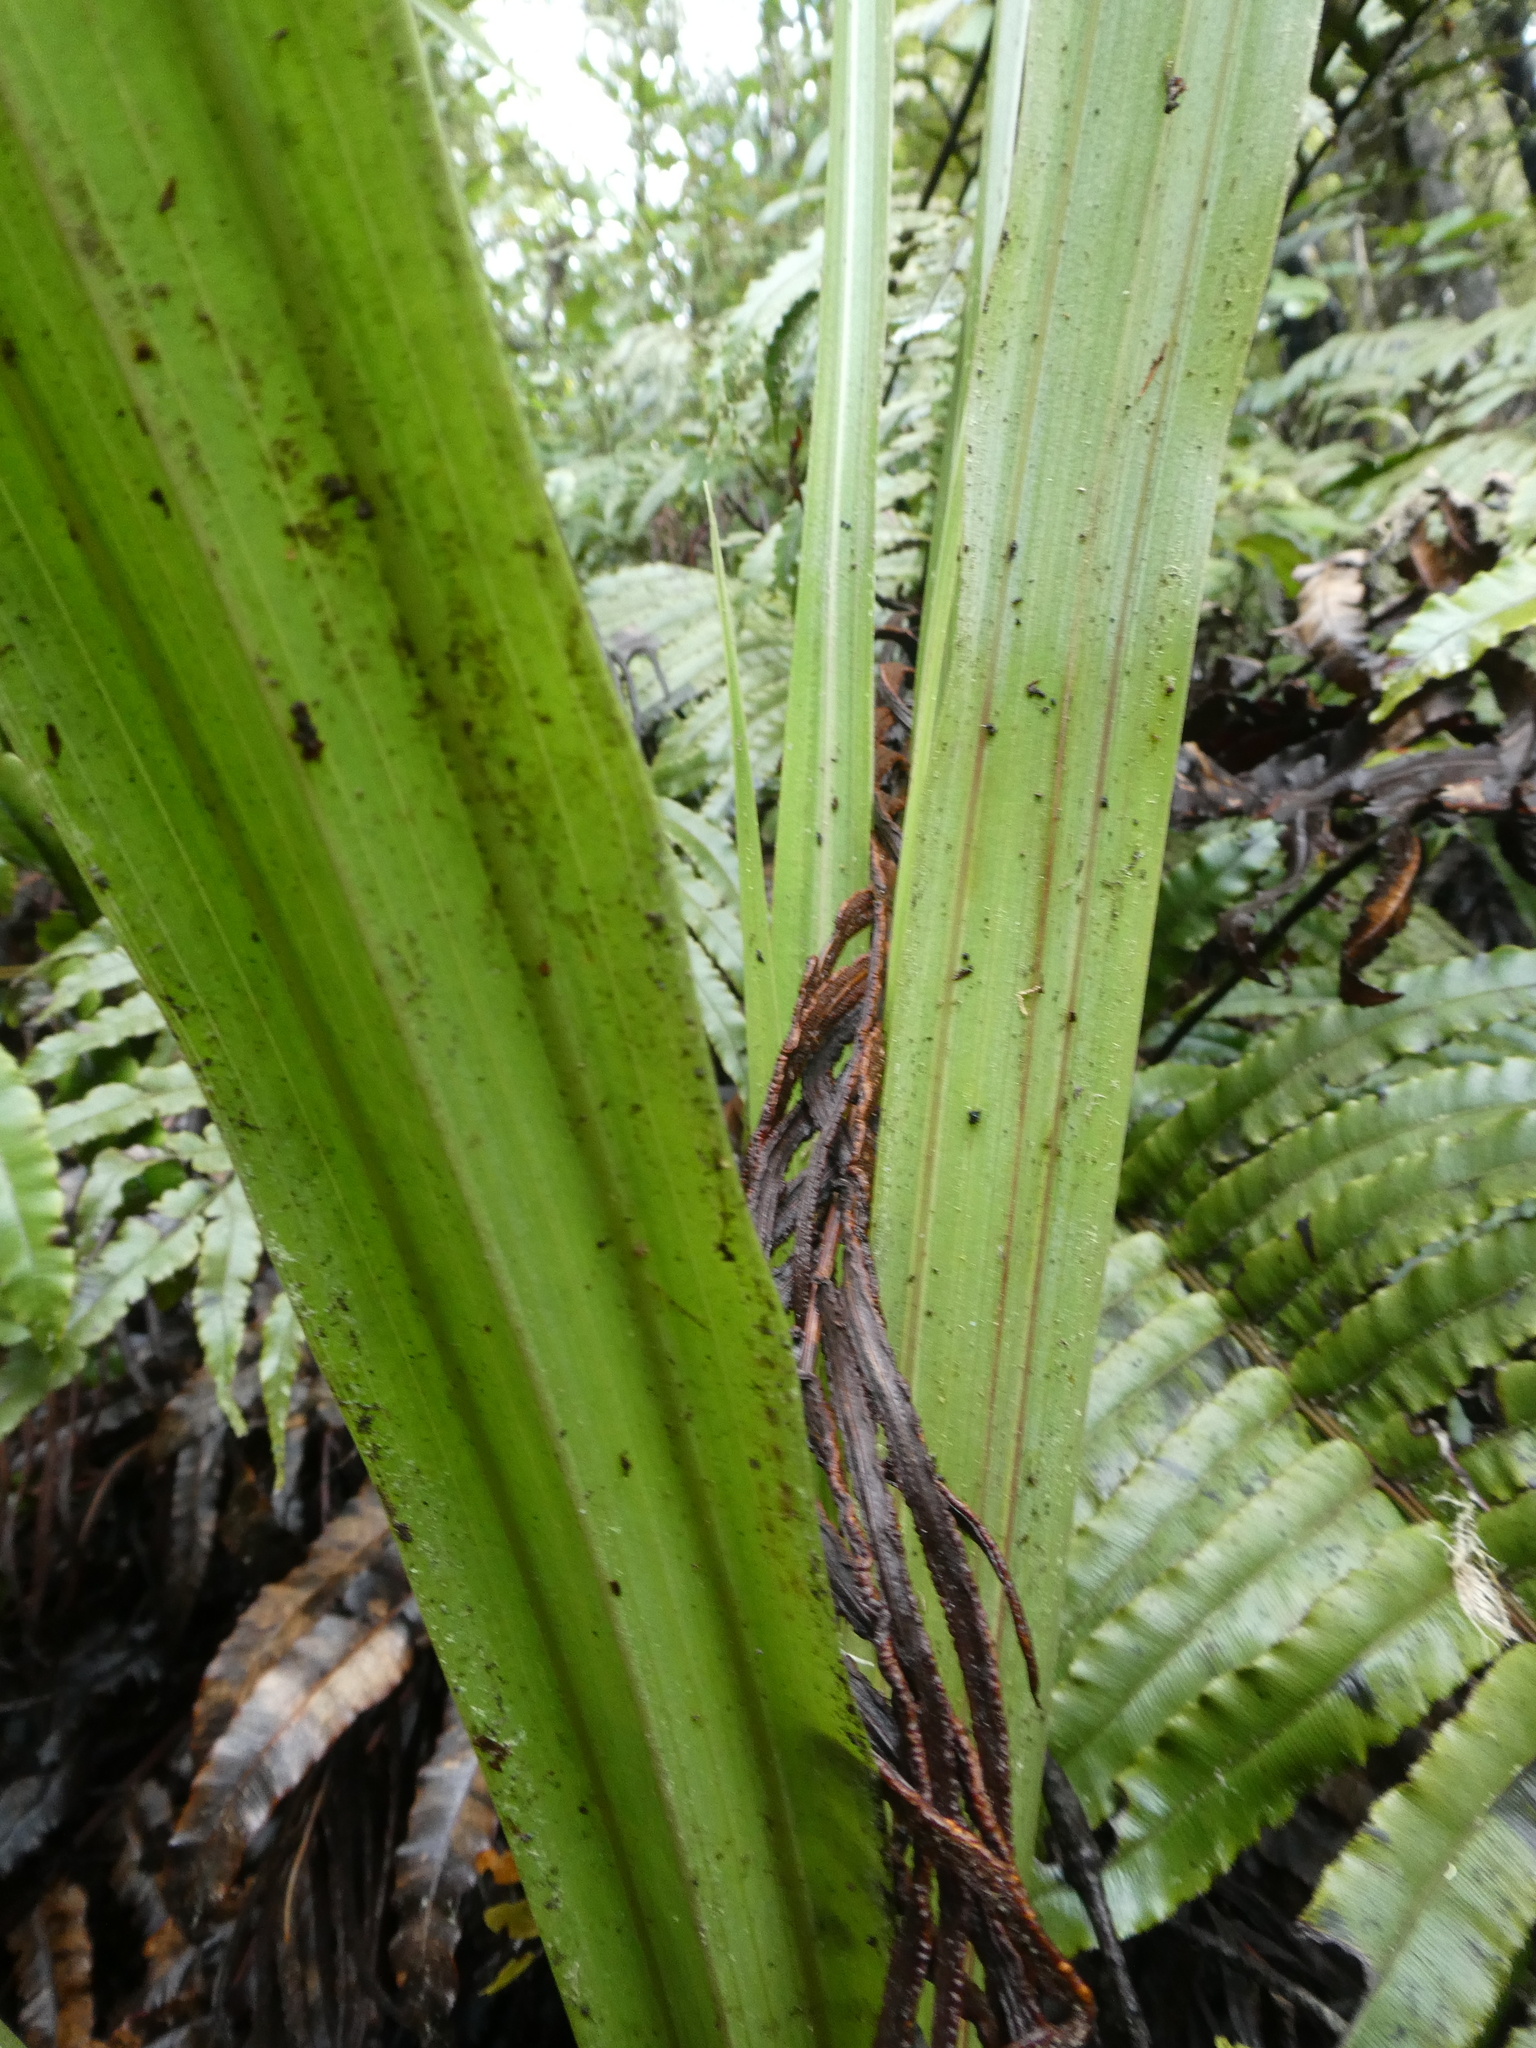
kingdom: Plantae
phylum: Tracheophyta
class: Liliopsida
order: Asparagales
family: Asteliaceae
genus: Astelia
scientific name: Astelia fragrans
